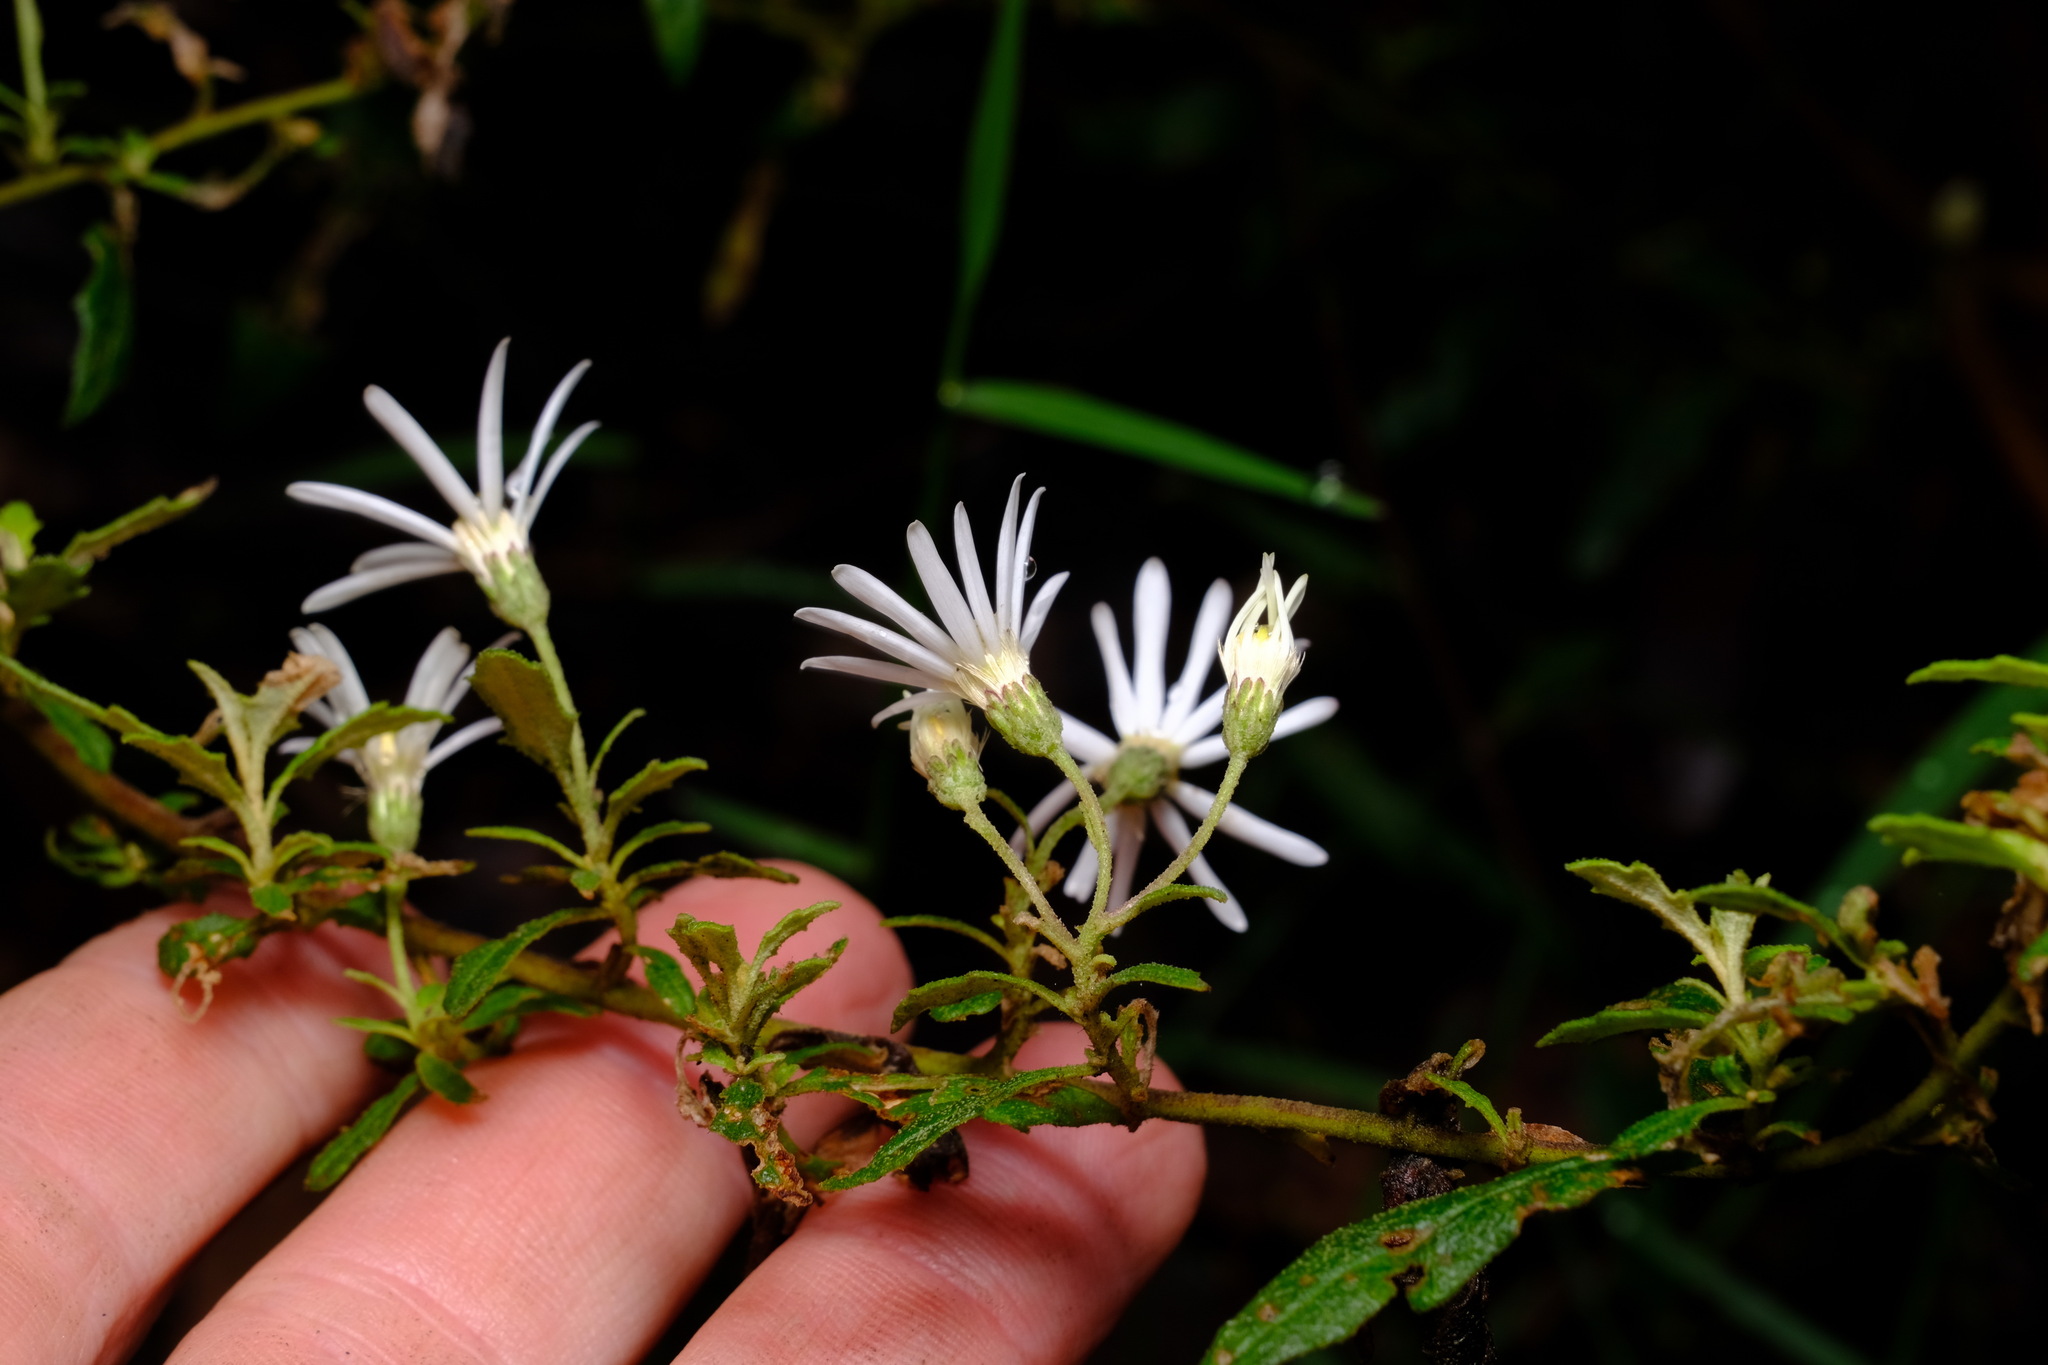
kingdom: Plantae
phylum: Tracheophyta
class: Magnoliopsida
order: Asterales
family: Asteraceae
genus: Olearia
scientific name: Olearia stellulata
